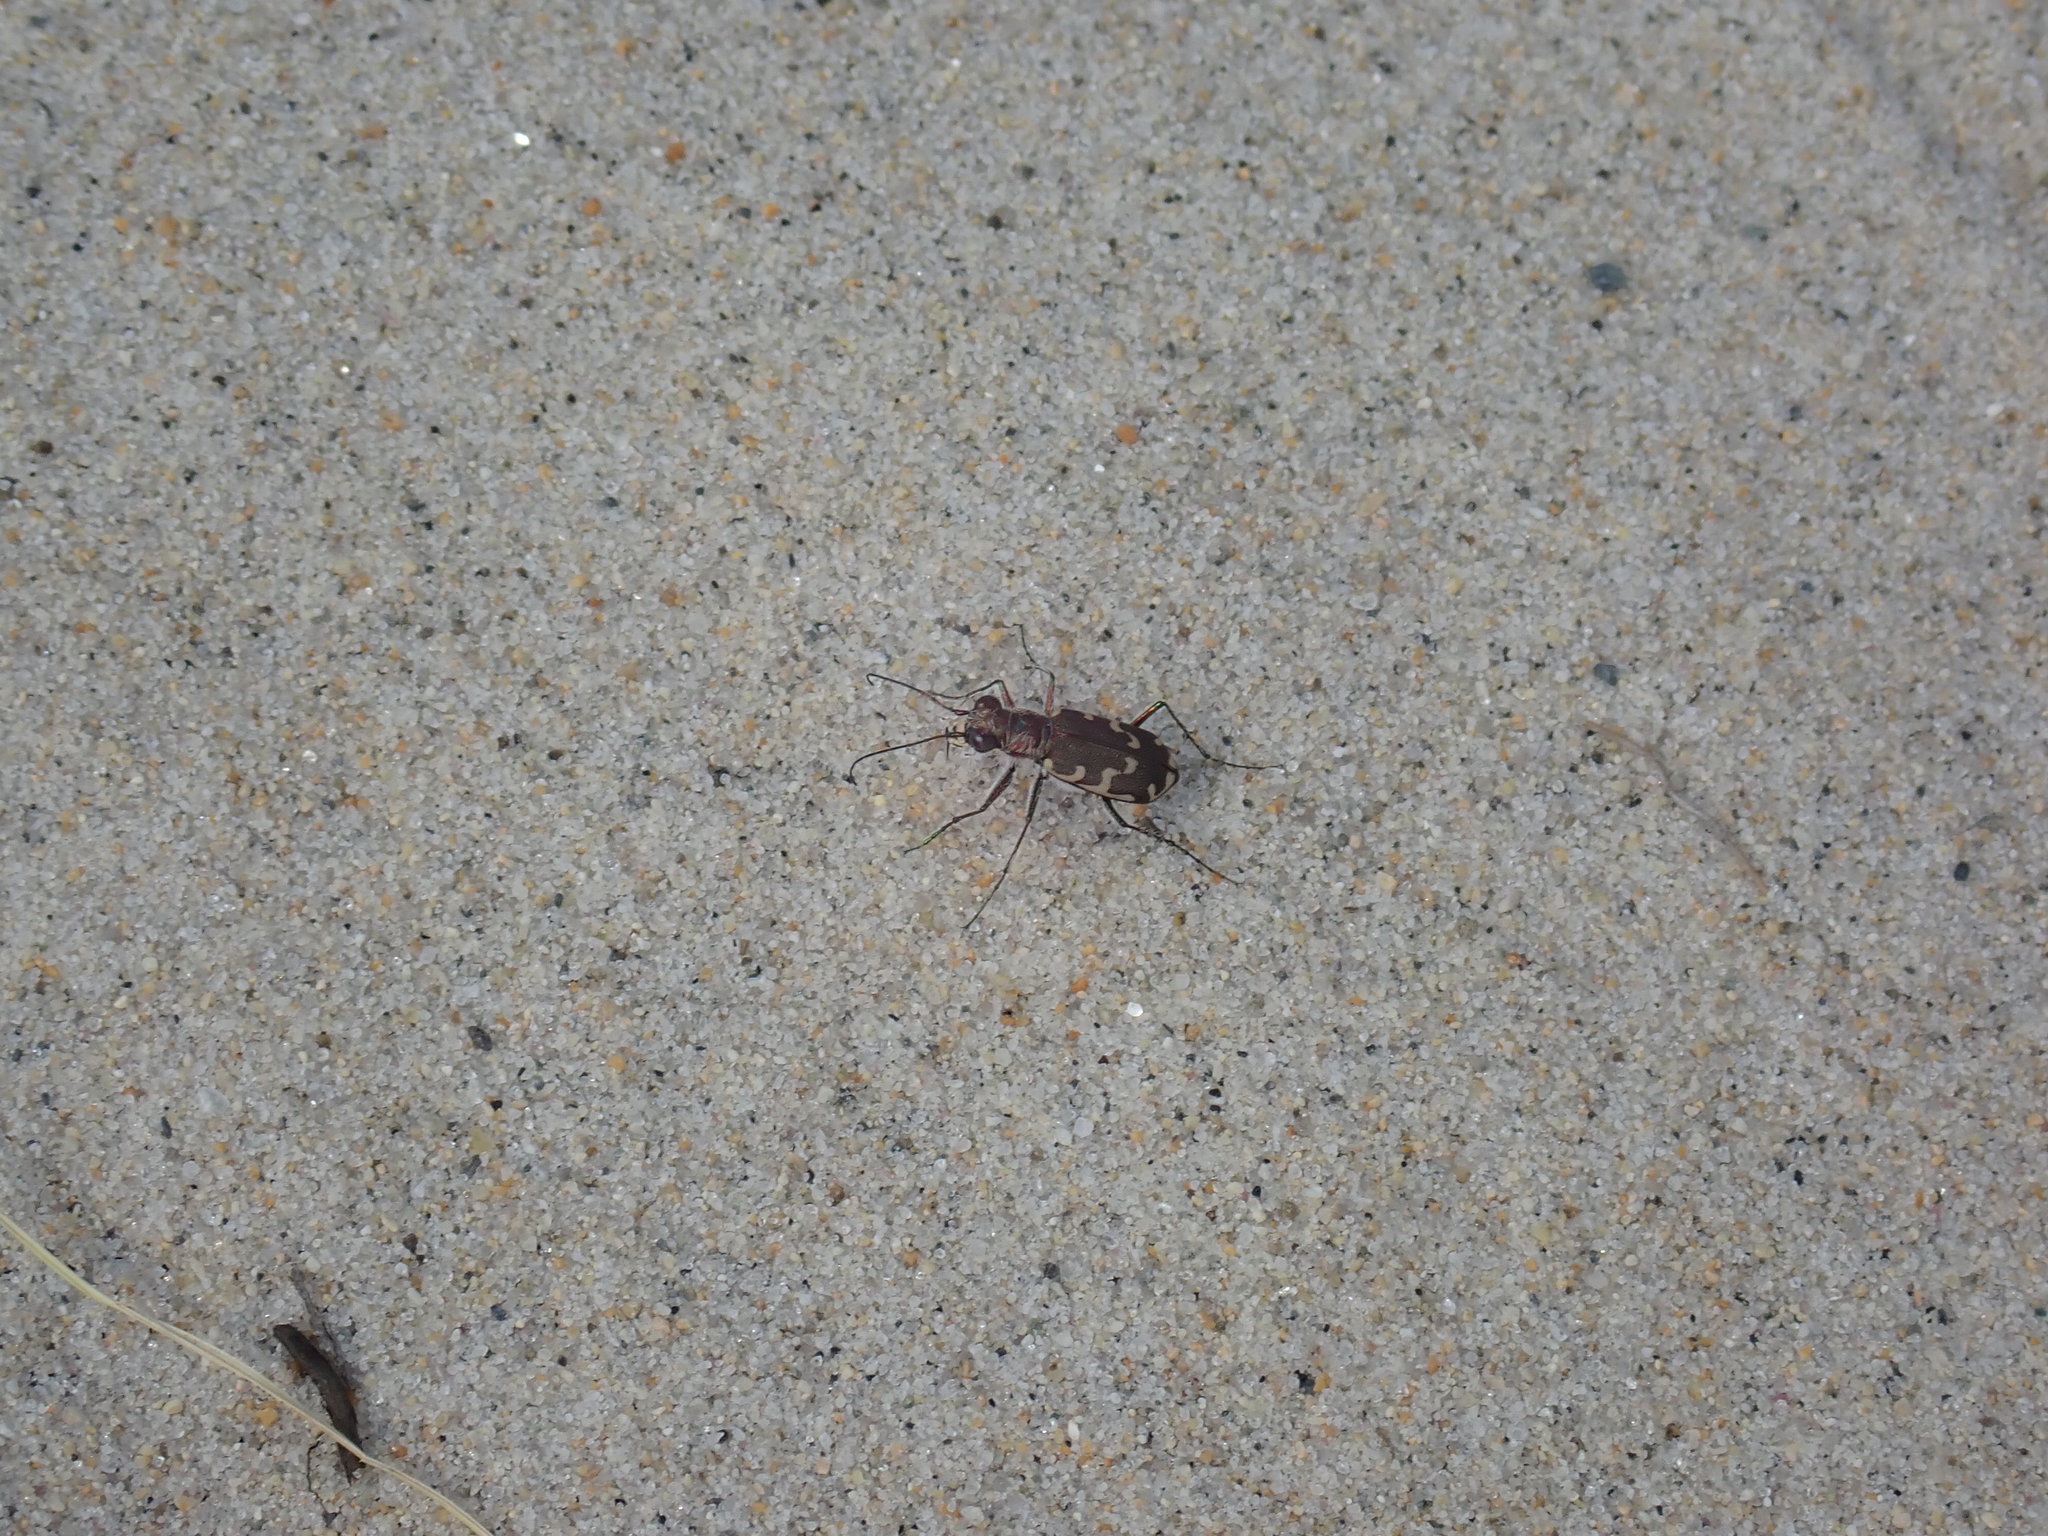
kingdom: Animalia
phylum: Arthropoda
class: Insecta
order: Coleoptera
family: Carabidae
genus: Cicindela
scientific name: Cicindela repanda
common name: Bronzed tiger beetle
